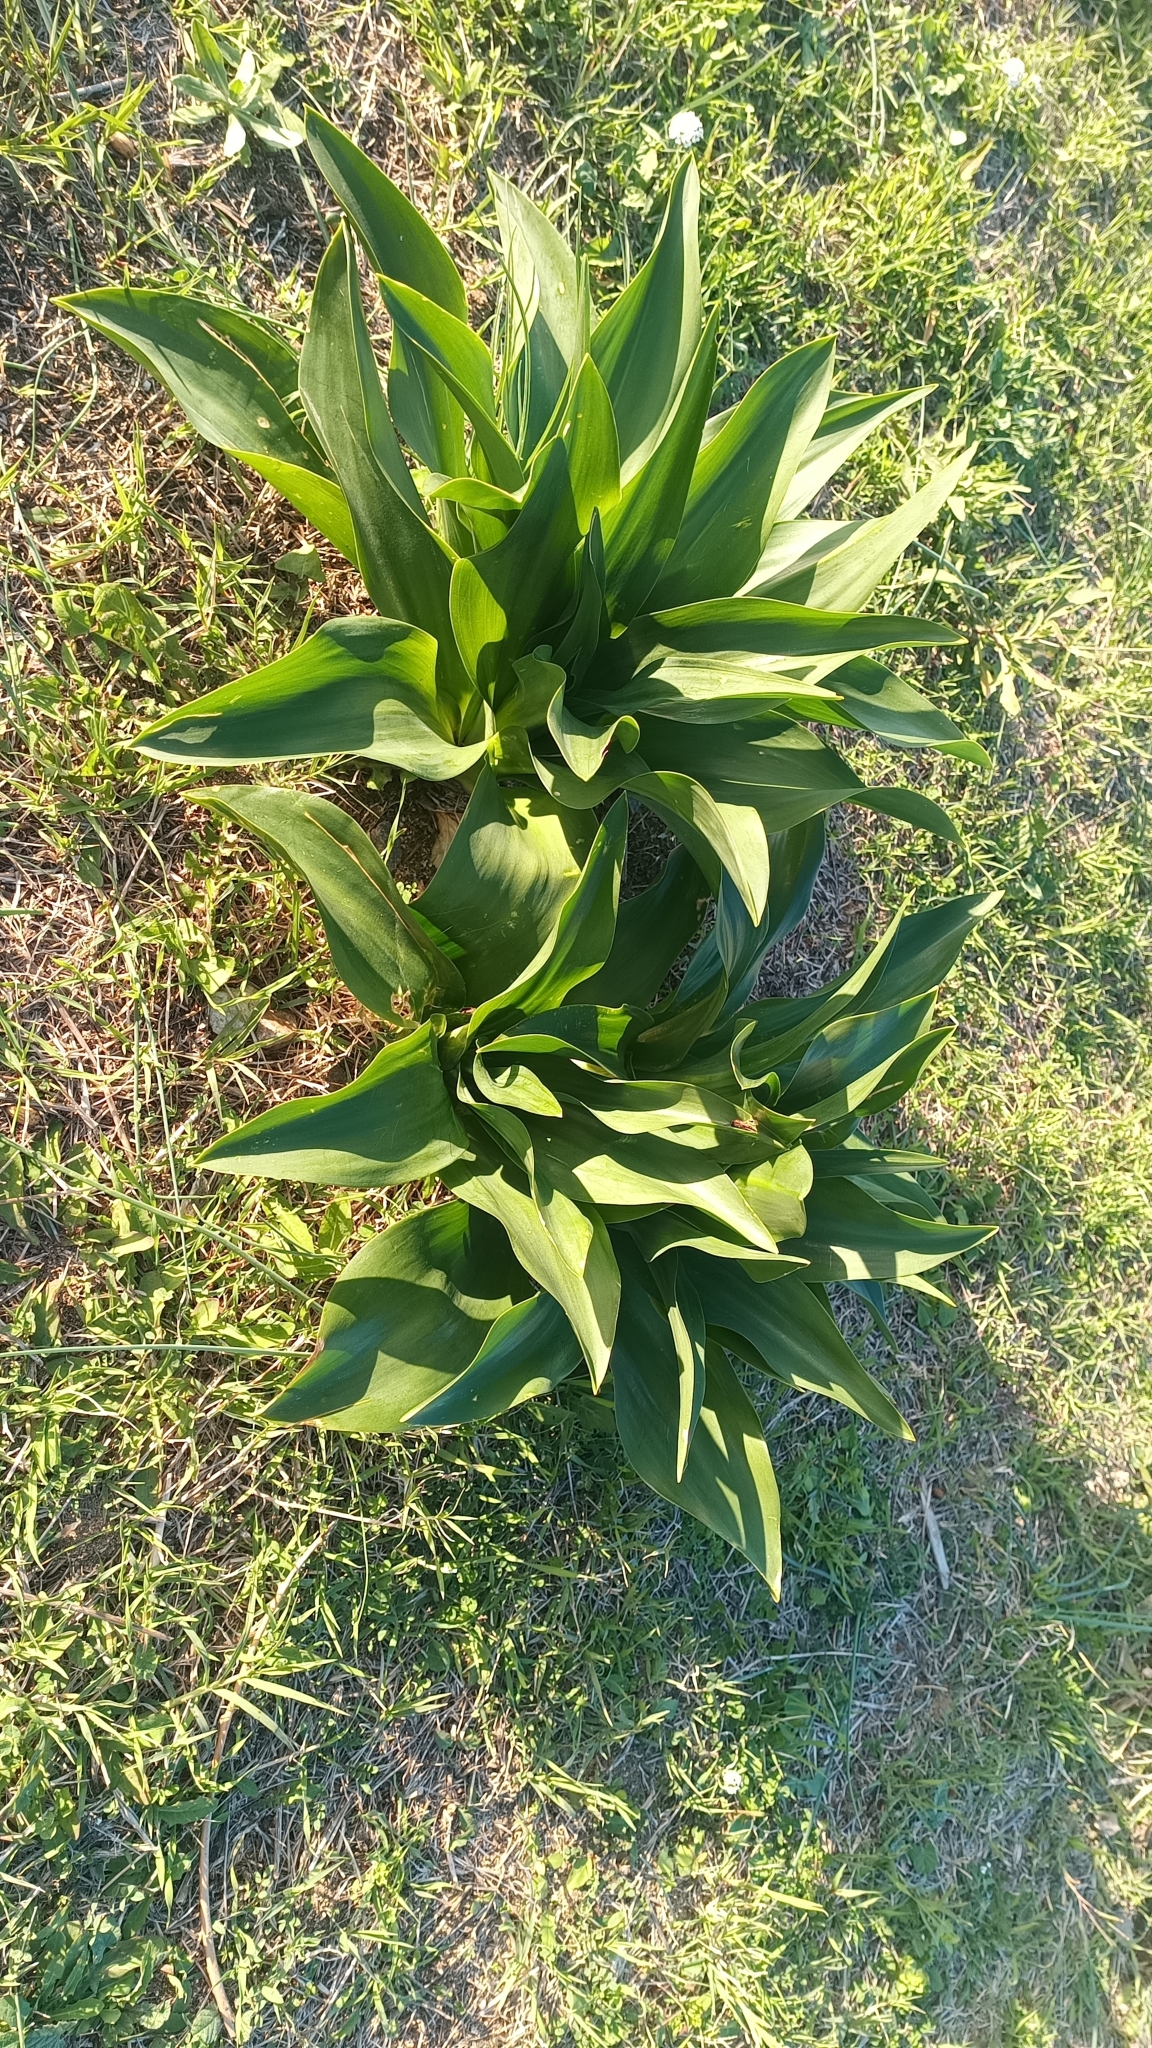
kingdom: Plantae
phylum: Tracheophyta
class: Liliopsida
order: Asparagales
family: Asparagaceae
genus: Drimia
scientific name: Drimia pancration
